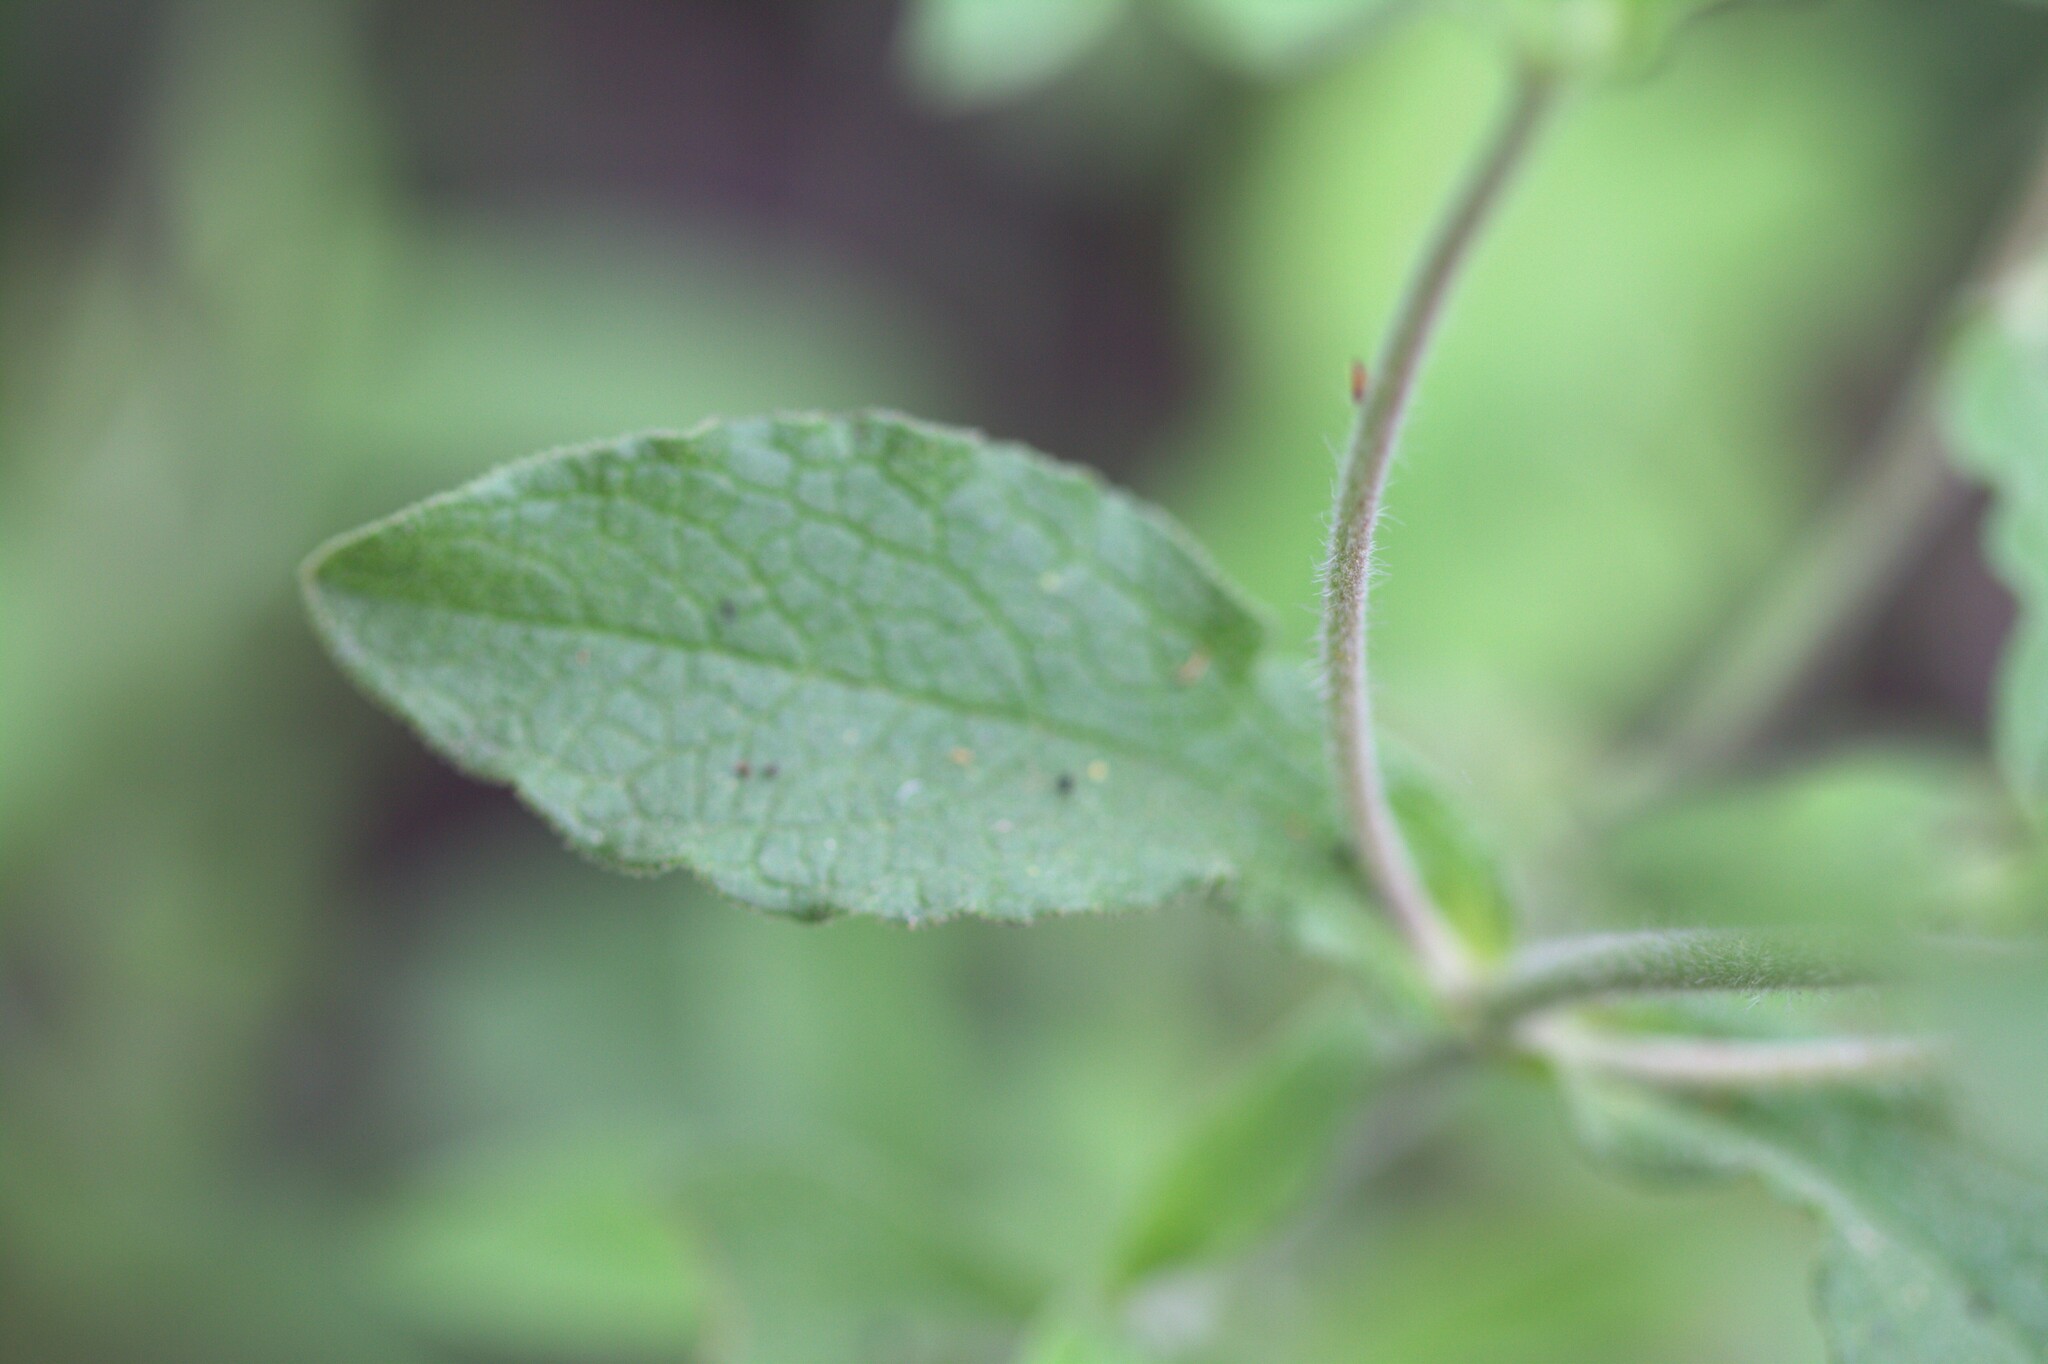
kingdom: Plantae
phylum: Tracheophyta
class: Magnoliopsida
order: Malvales
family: Cistaceae
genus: Cistus
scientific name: Cistus creticus
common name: Cretan rockrose
